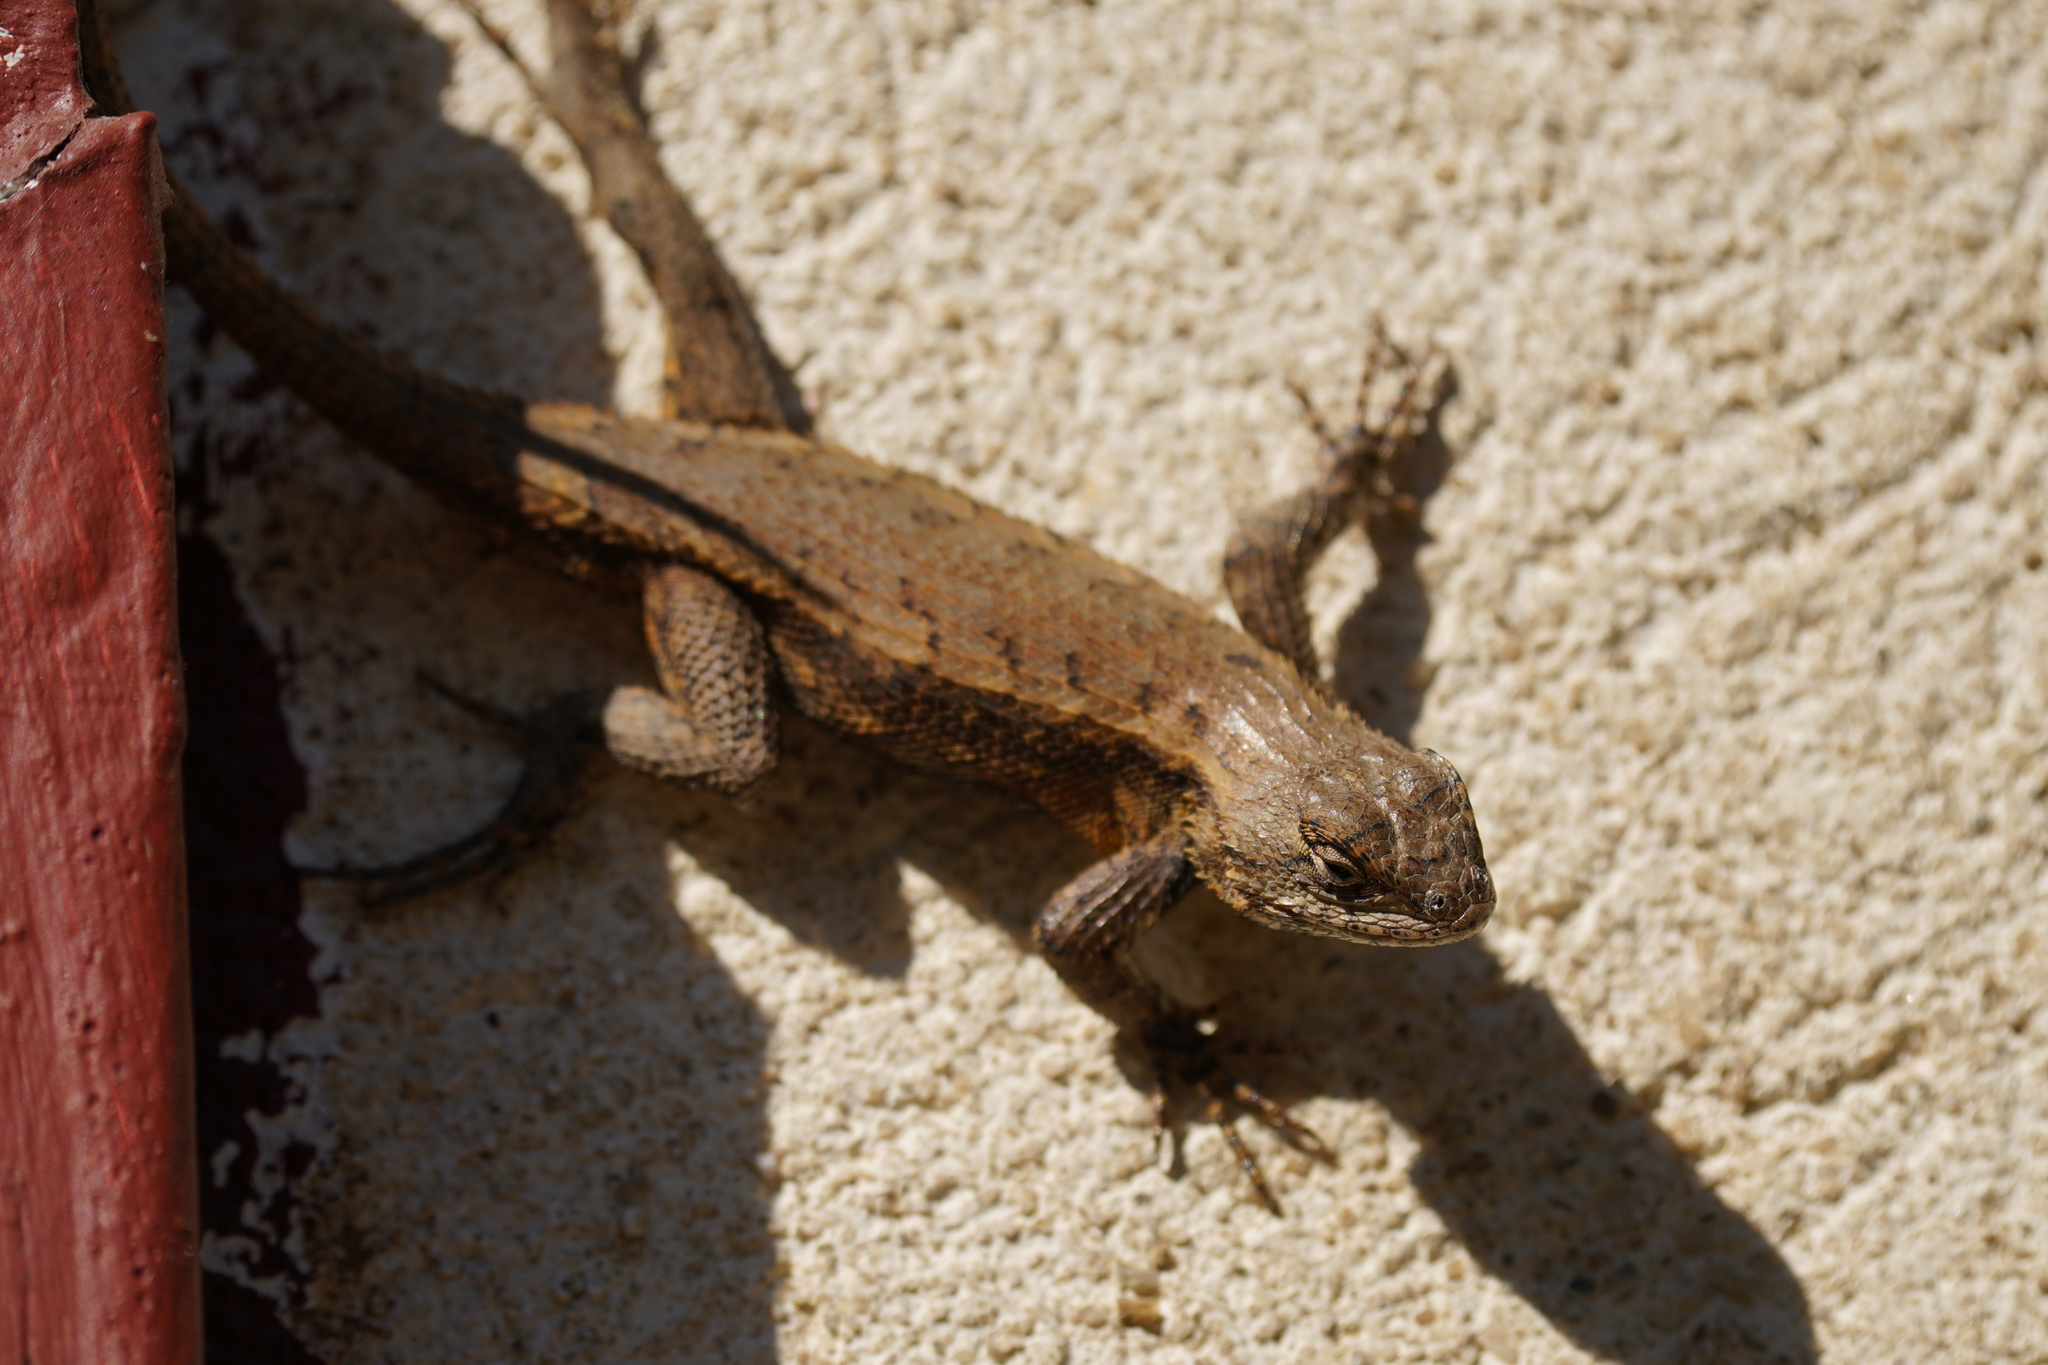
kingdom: Animalia
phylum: Chordata
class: Squamata
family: Phrynosomatidae
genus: Sceloporus
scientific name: Sceloporus undulatus
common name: Eastern fence lizard
